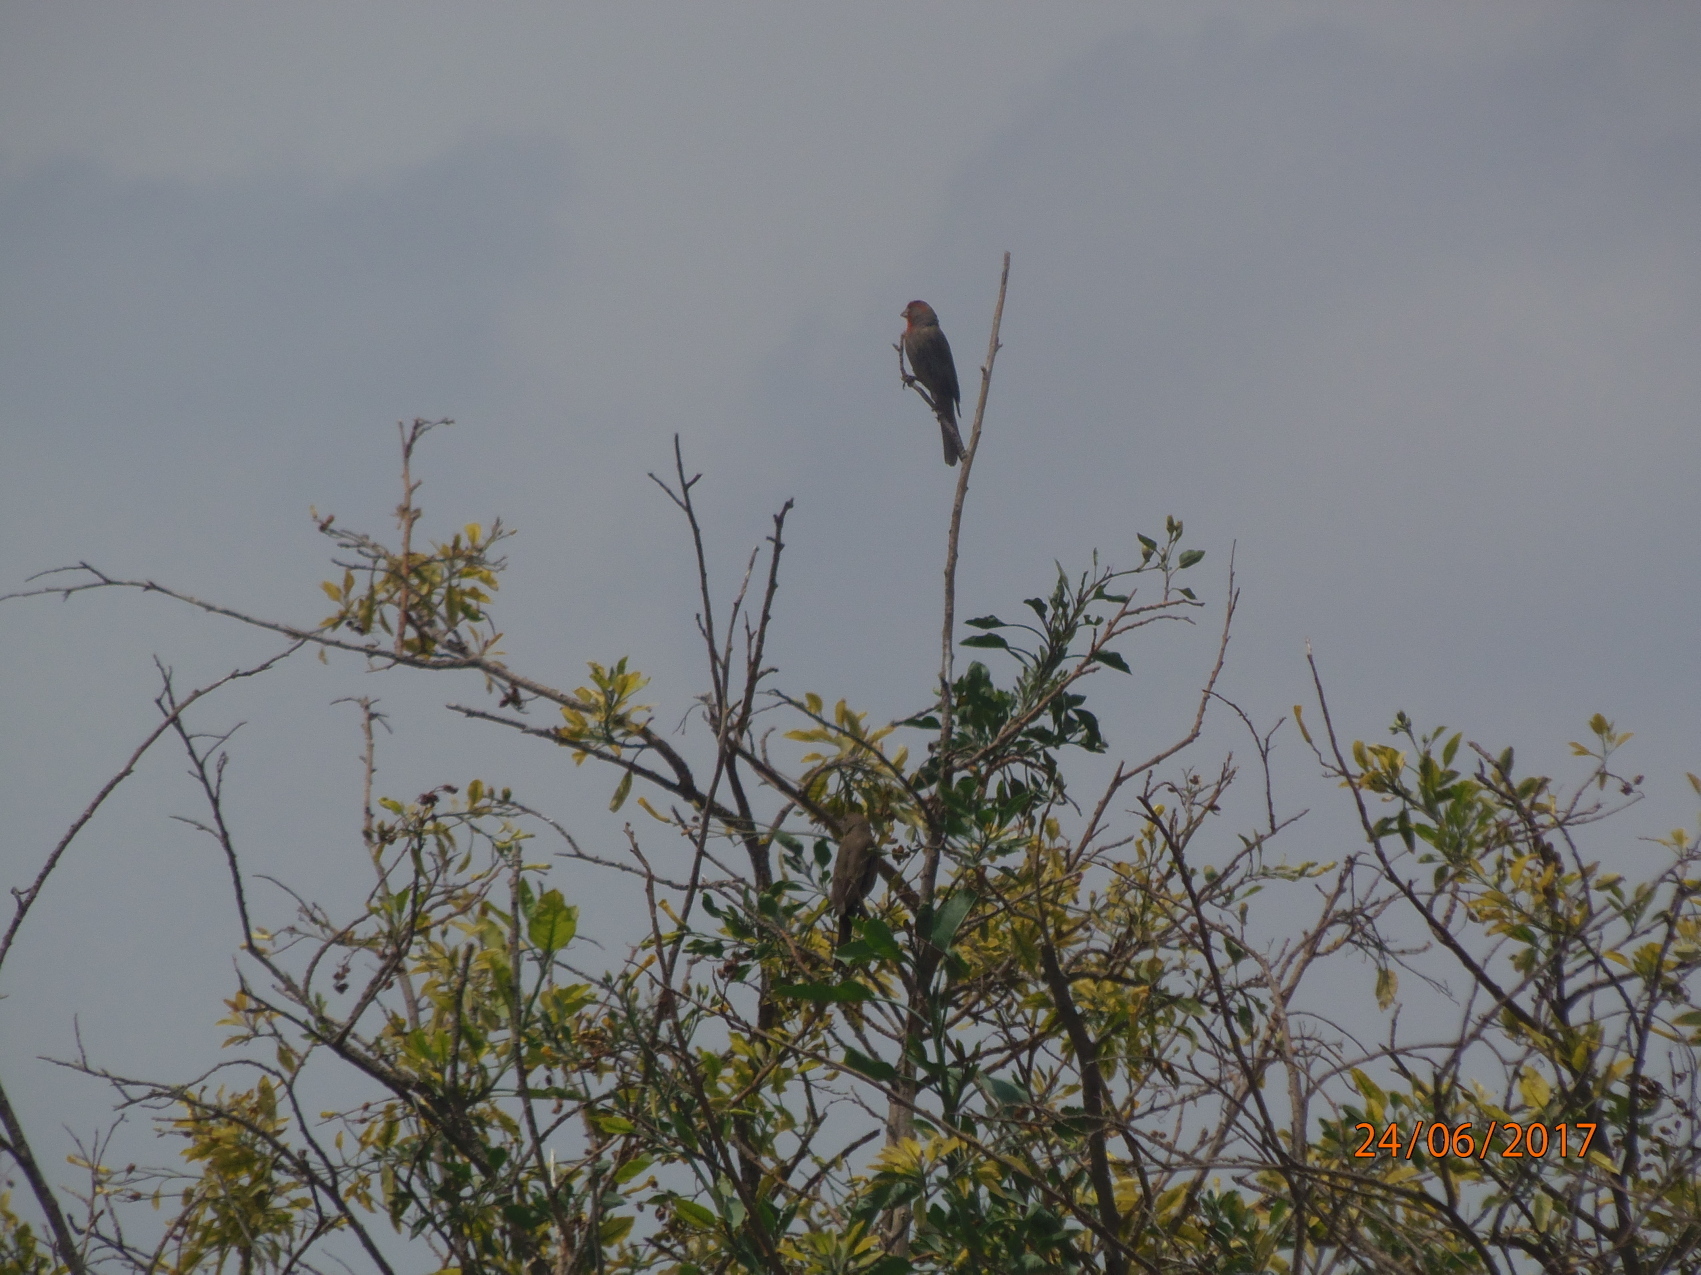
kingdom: Animalia
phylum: Chordata
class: Aves
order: Passeriformes
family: Fringillidae
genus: Haemorhous
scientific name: Haemorhous mexicanus
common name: House finch
